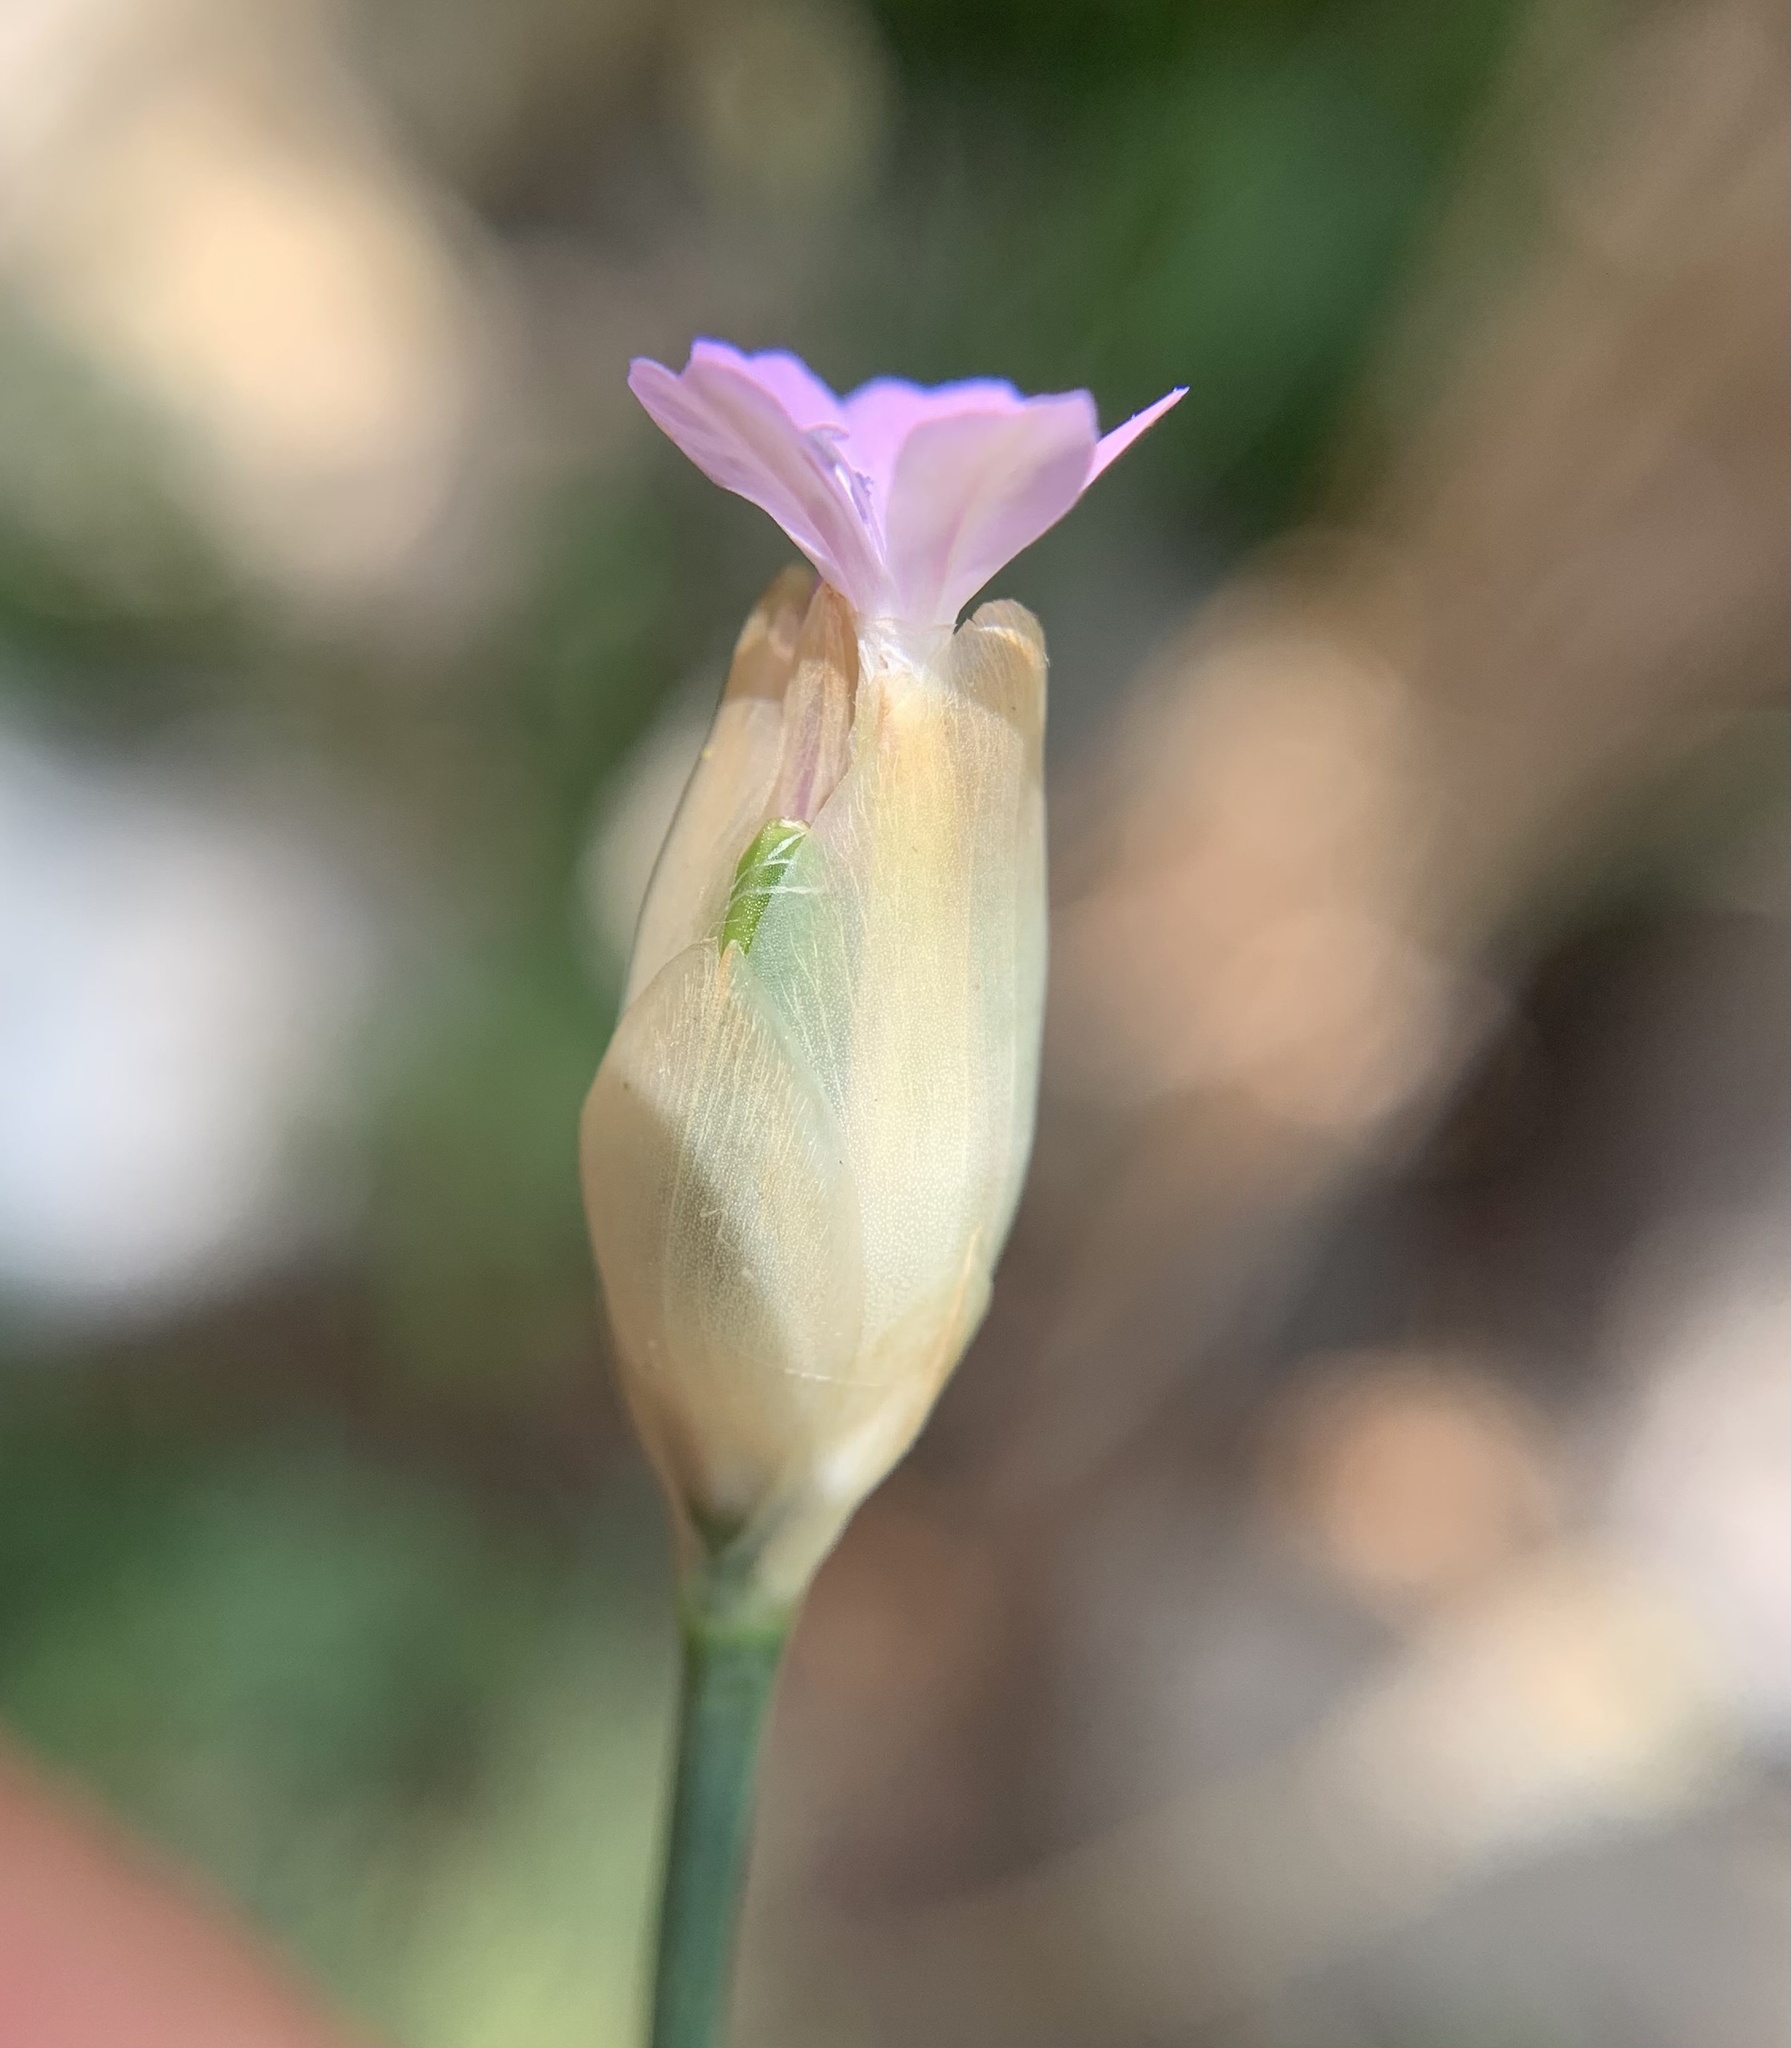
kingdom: Plantae
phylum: Tracheophyta
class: Magnoliopsida
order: Caryophyllales
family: Caryophyllaceae
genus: Petrorhagia
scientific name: Petrorhagia prolifera
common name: Proliferous pink
